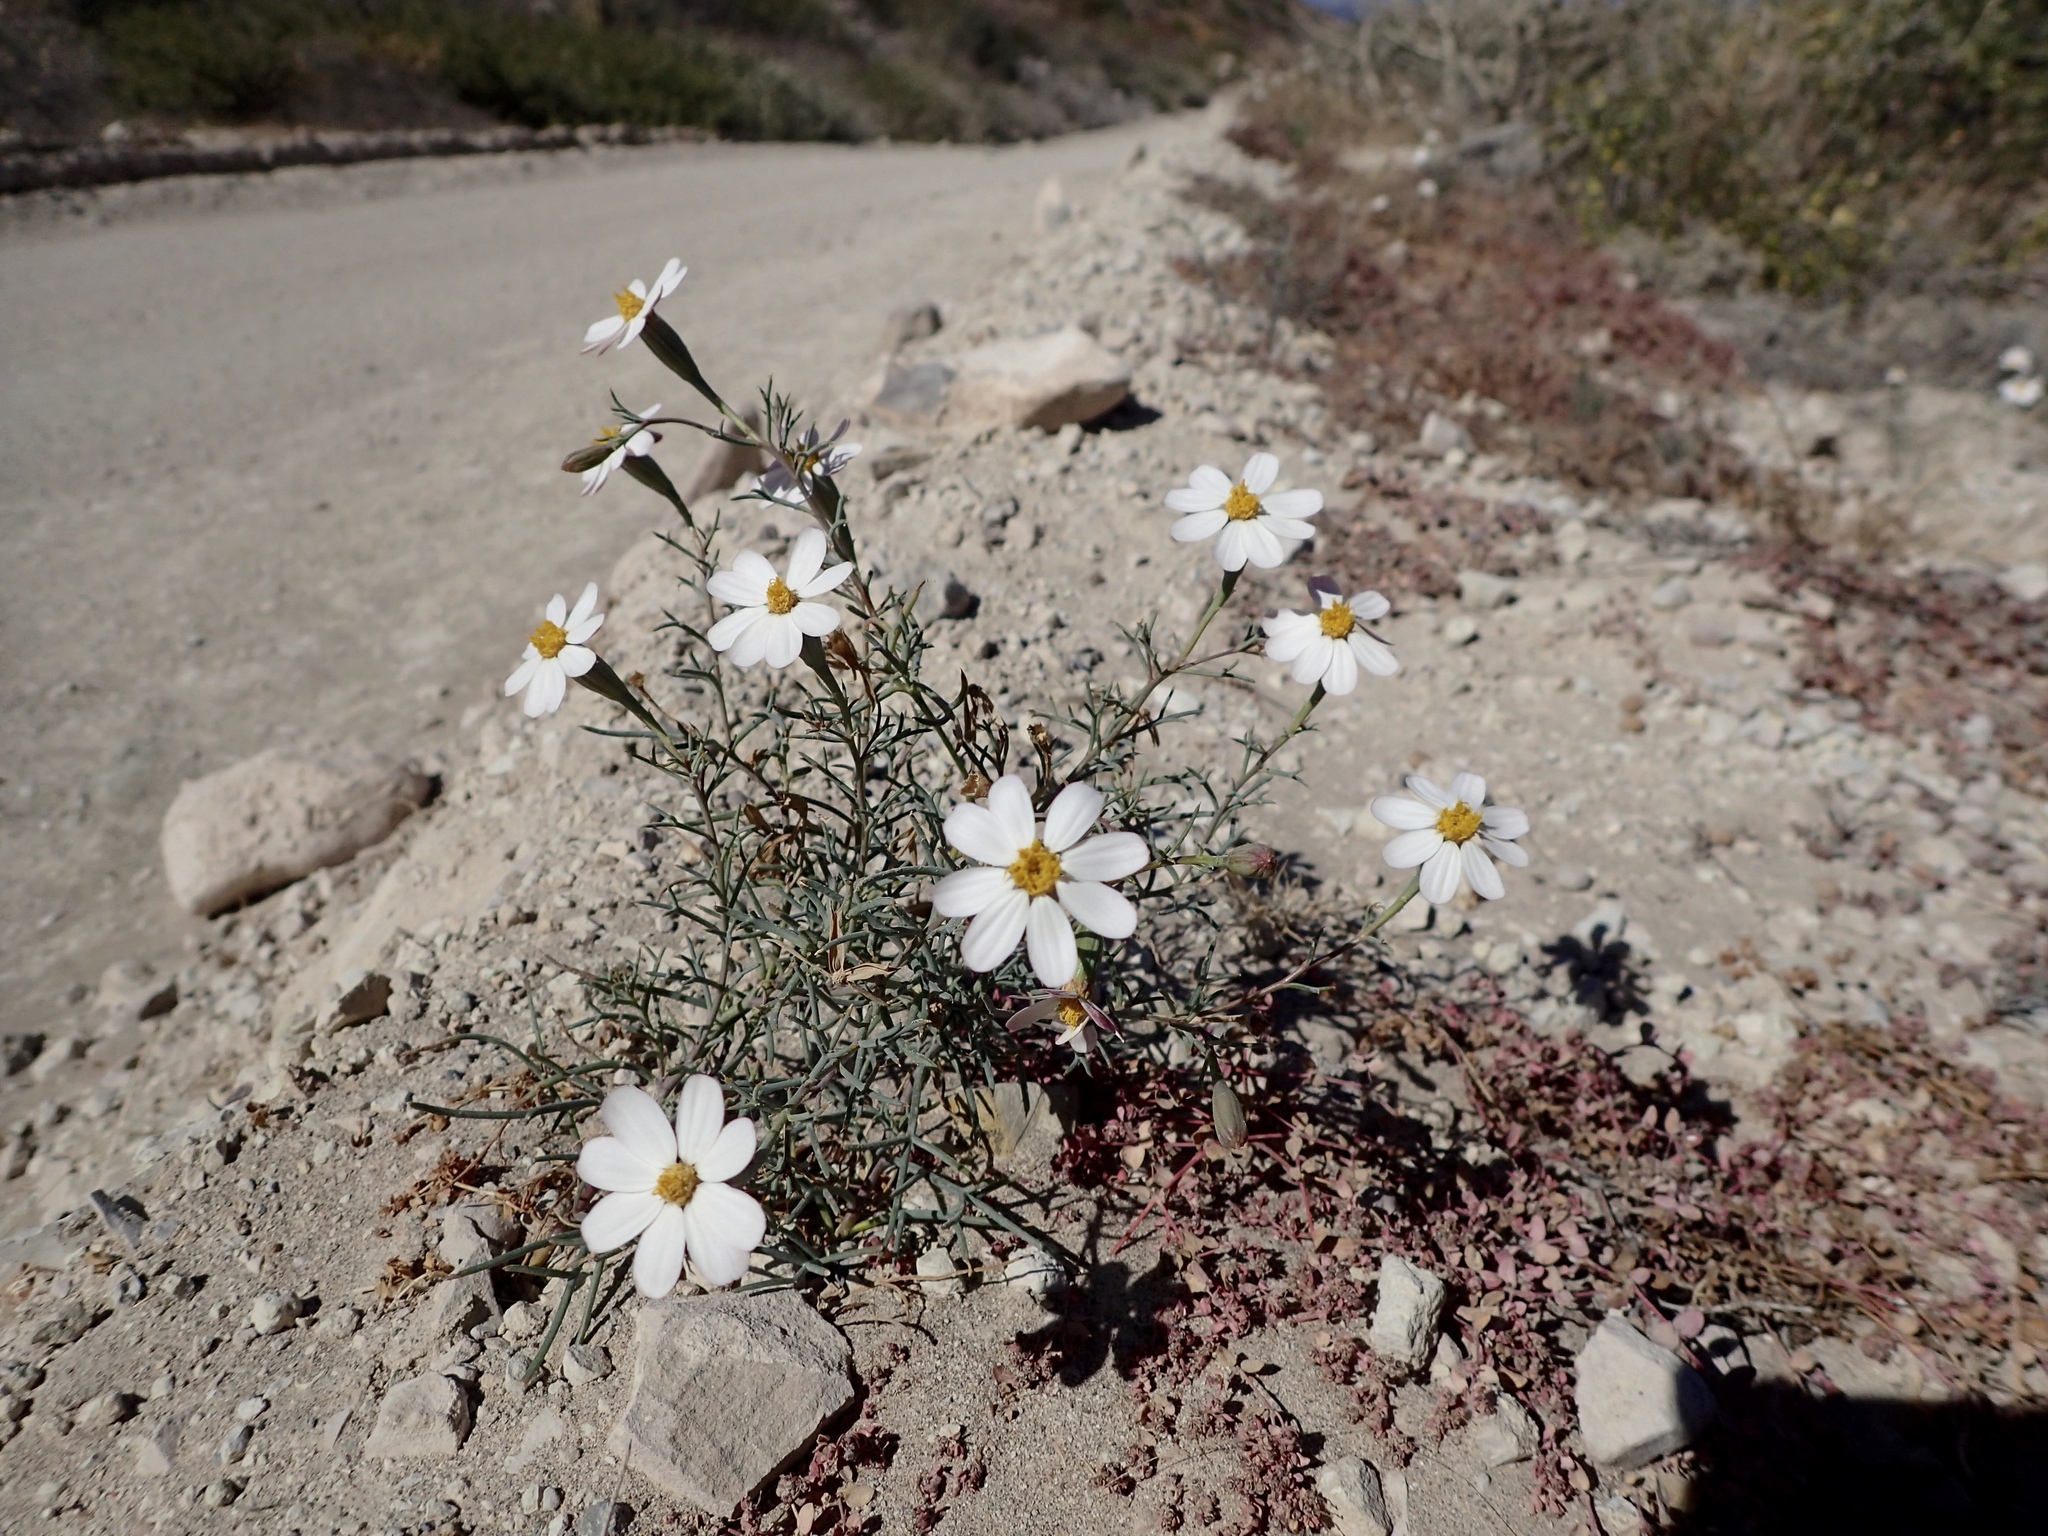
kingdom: Plantae
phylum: Tracheophyta
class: Magnoliopsida
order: Asterales
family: Asteraceae
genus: Nicolletia
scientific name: Nicolletia trifida
